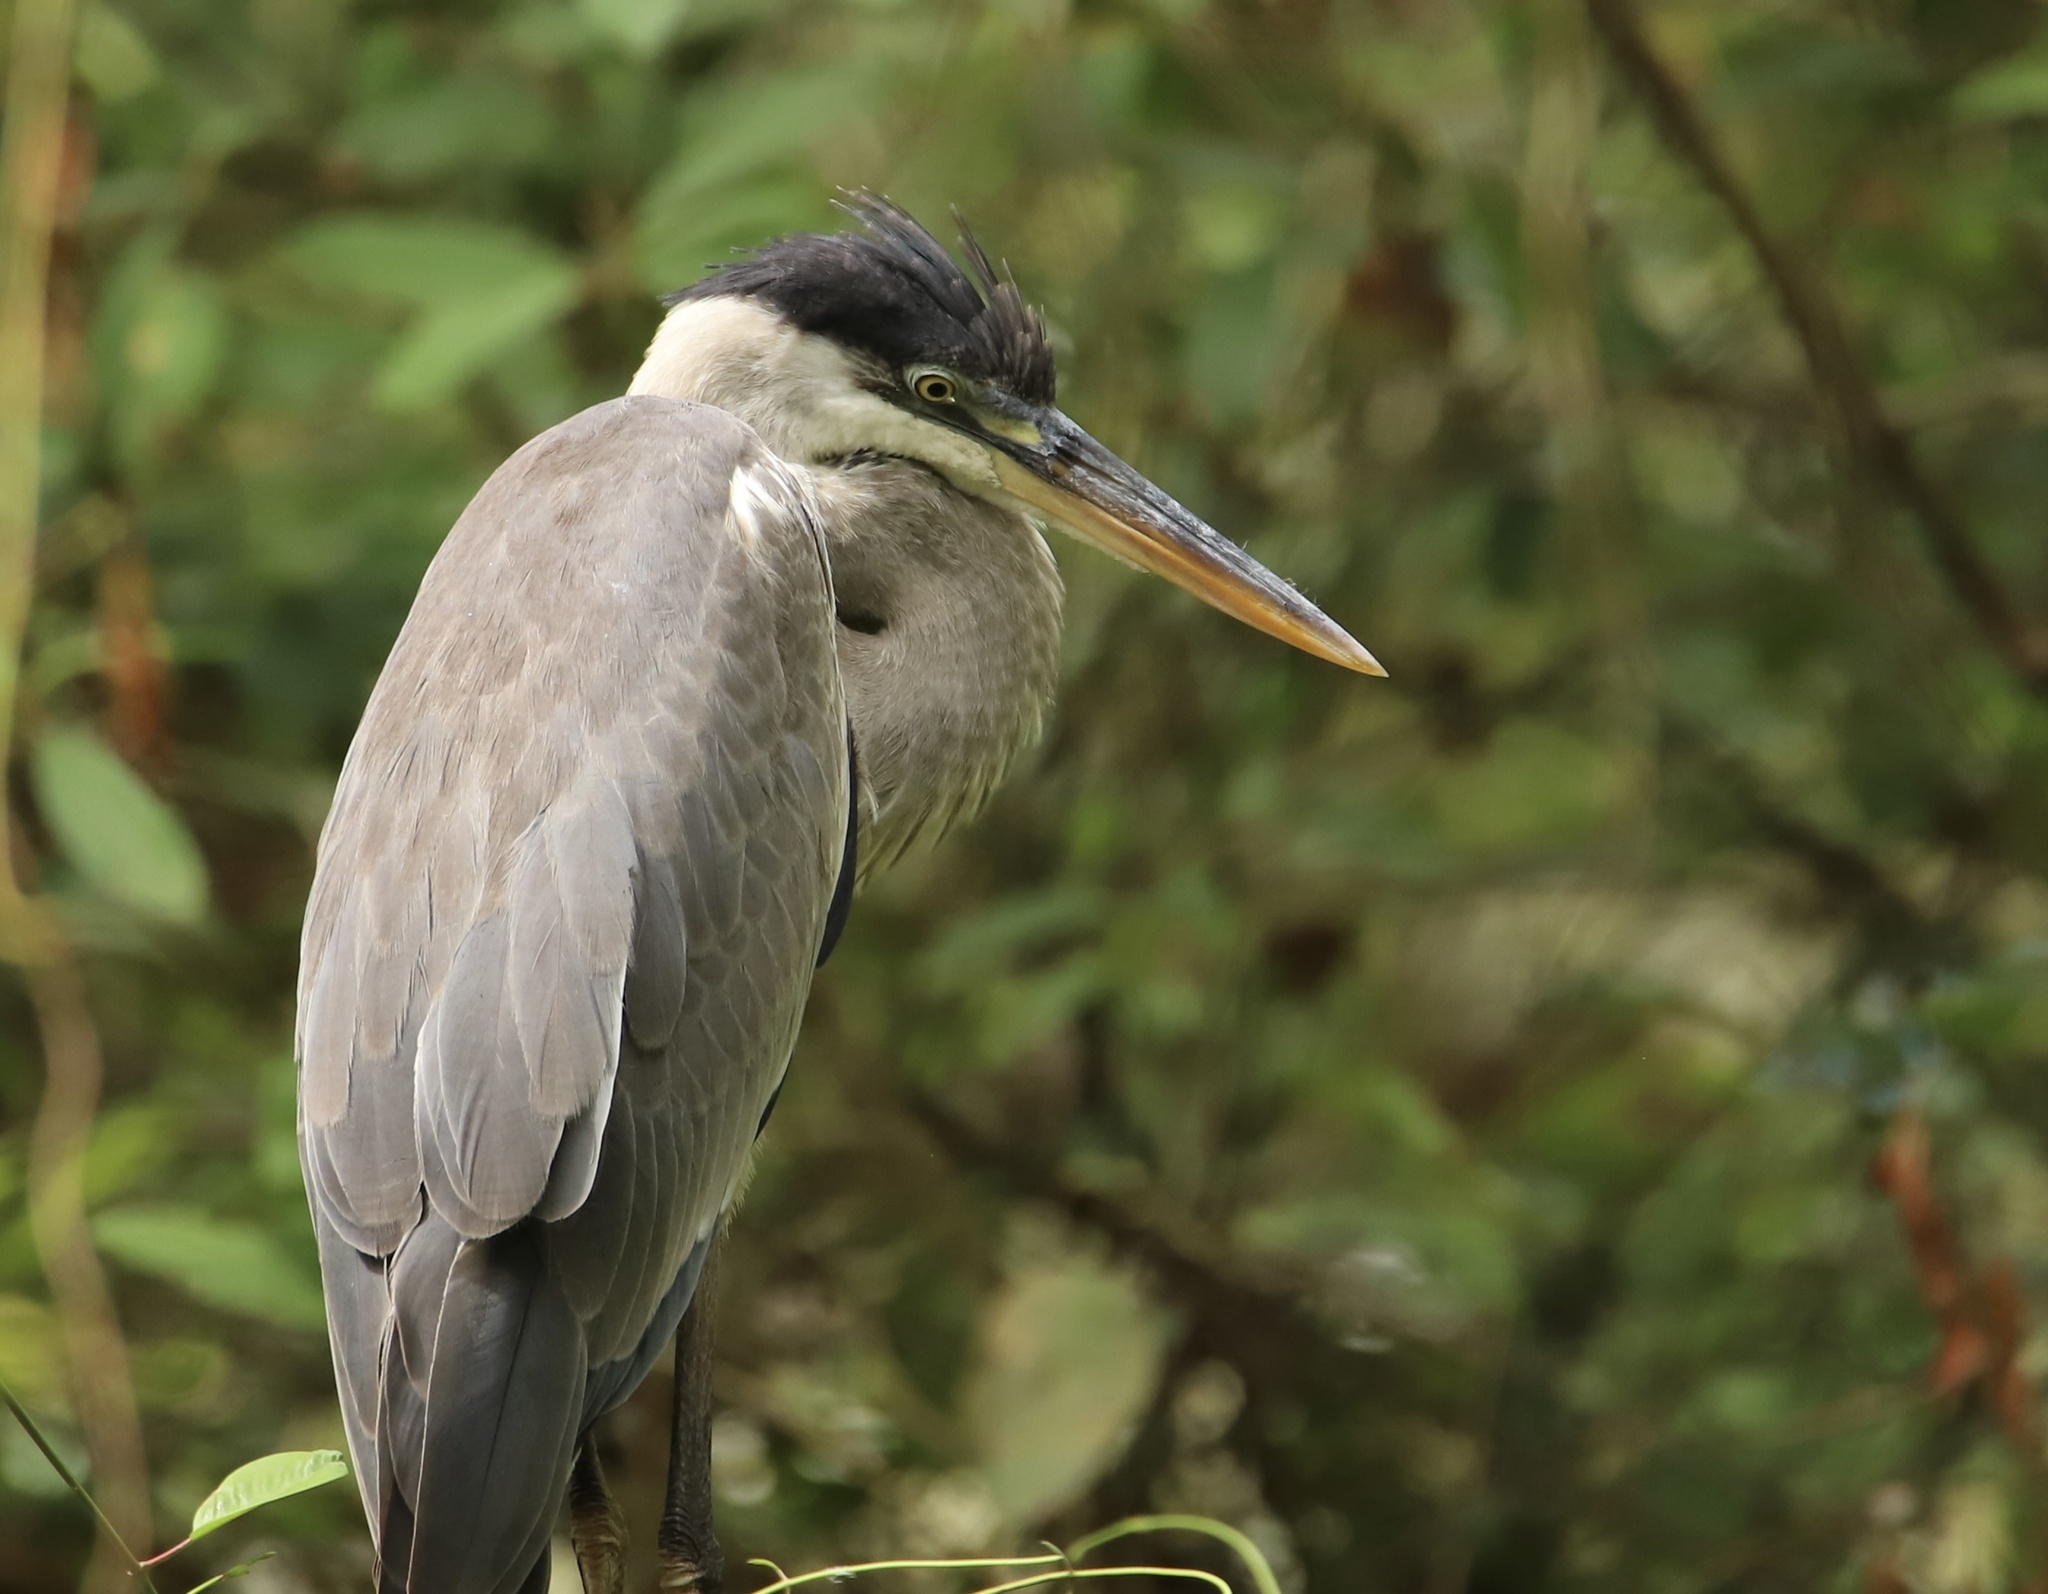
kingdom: Animalia
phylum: Chordata
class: Aves
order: Pelecaniformes
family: Ardeidae
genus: Ardea
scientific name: Ardea cocoi
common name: Cocoi heron
